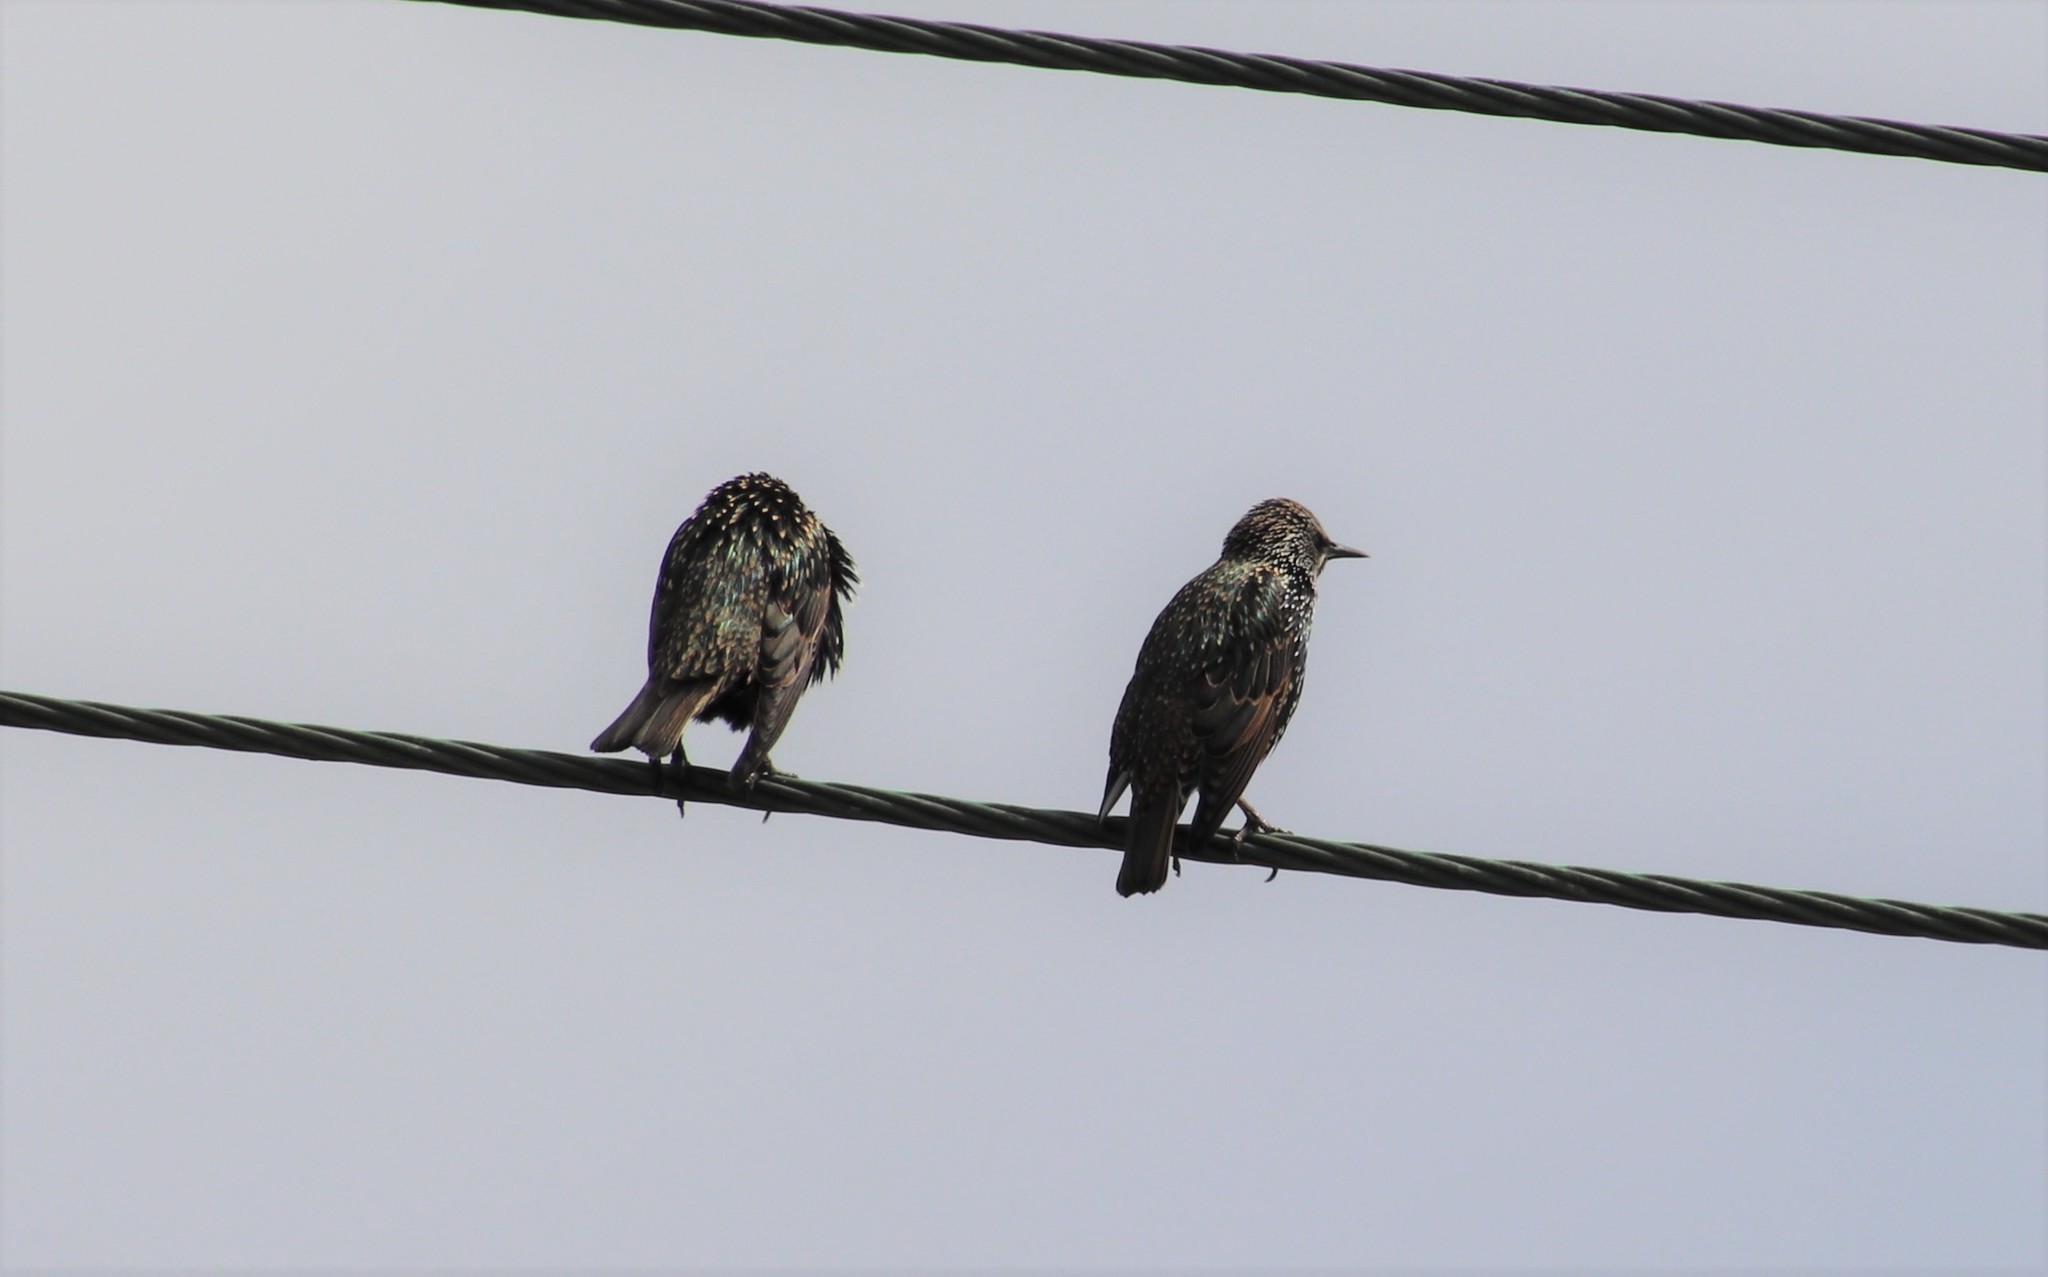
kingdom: Animalia
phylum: Chordata
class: Aves
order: Passeriformes
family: Sturnidae
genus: Sturnus
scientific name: Sturnus vulgaris
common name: Common starling
